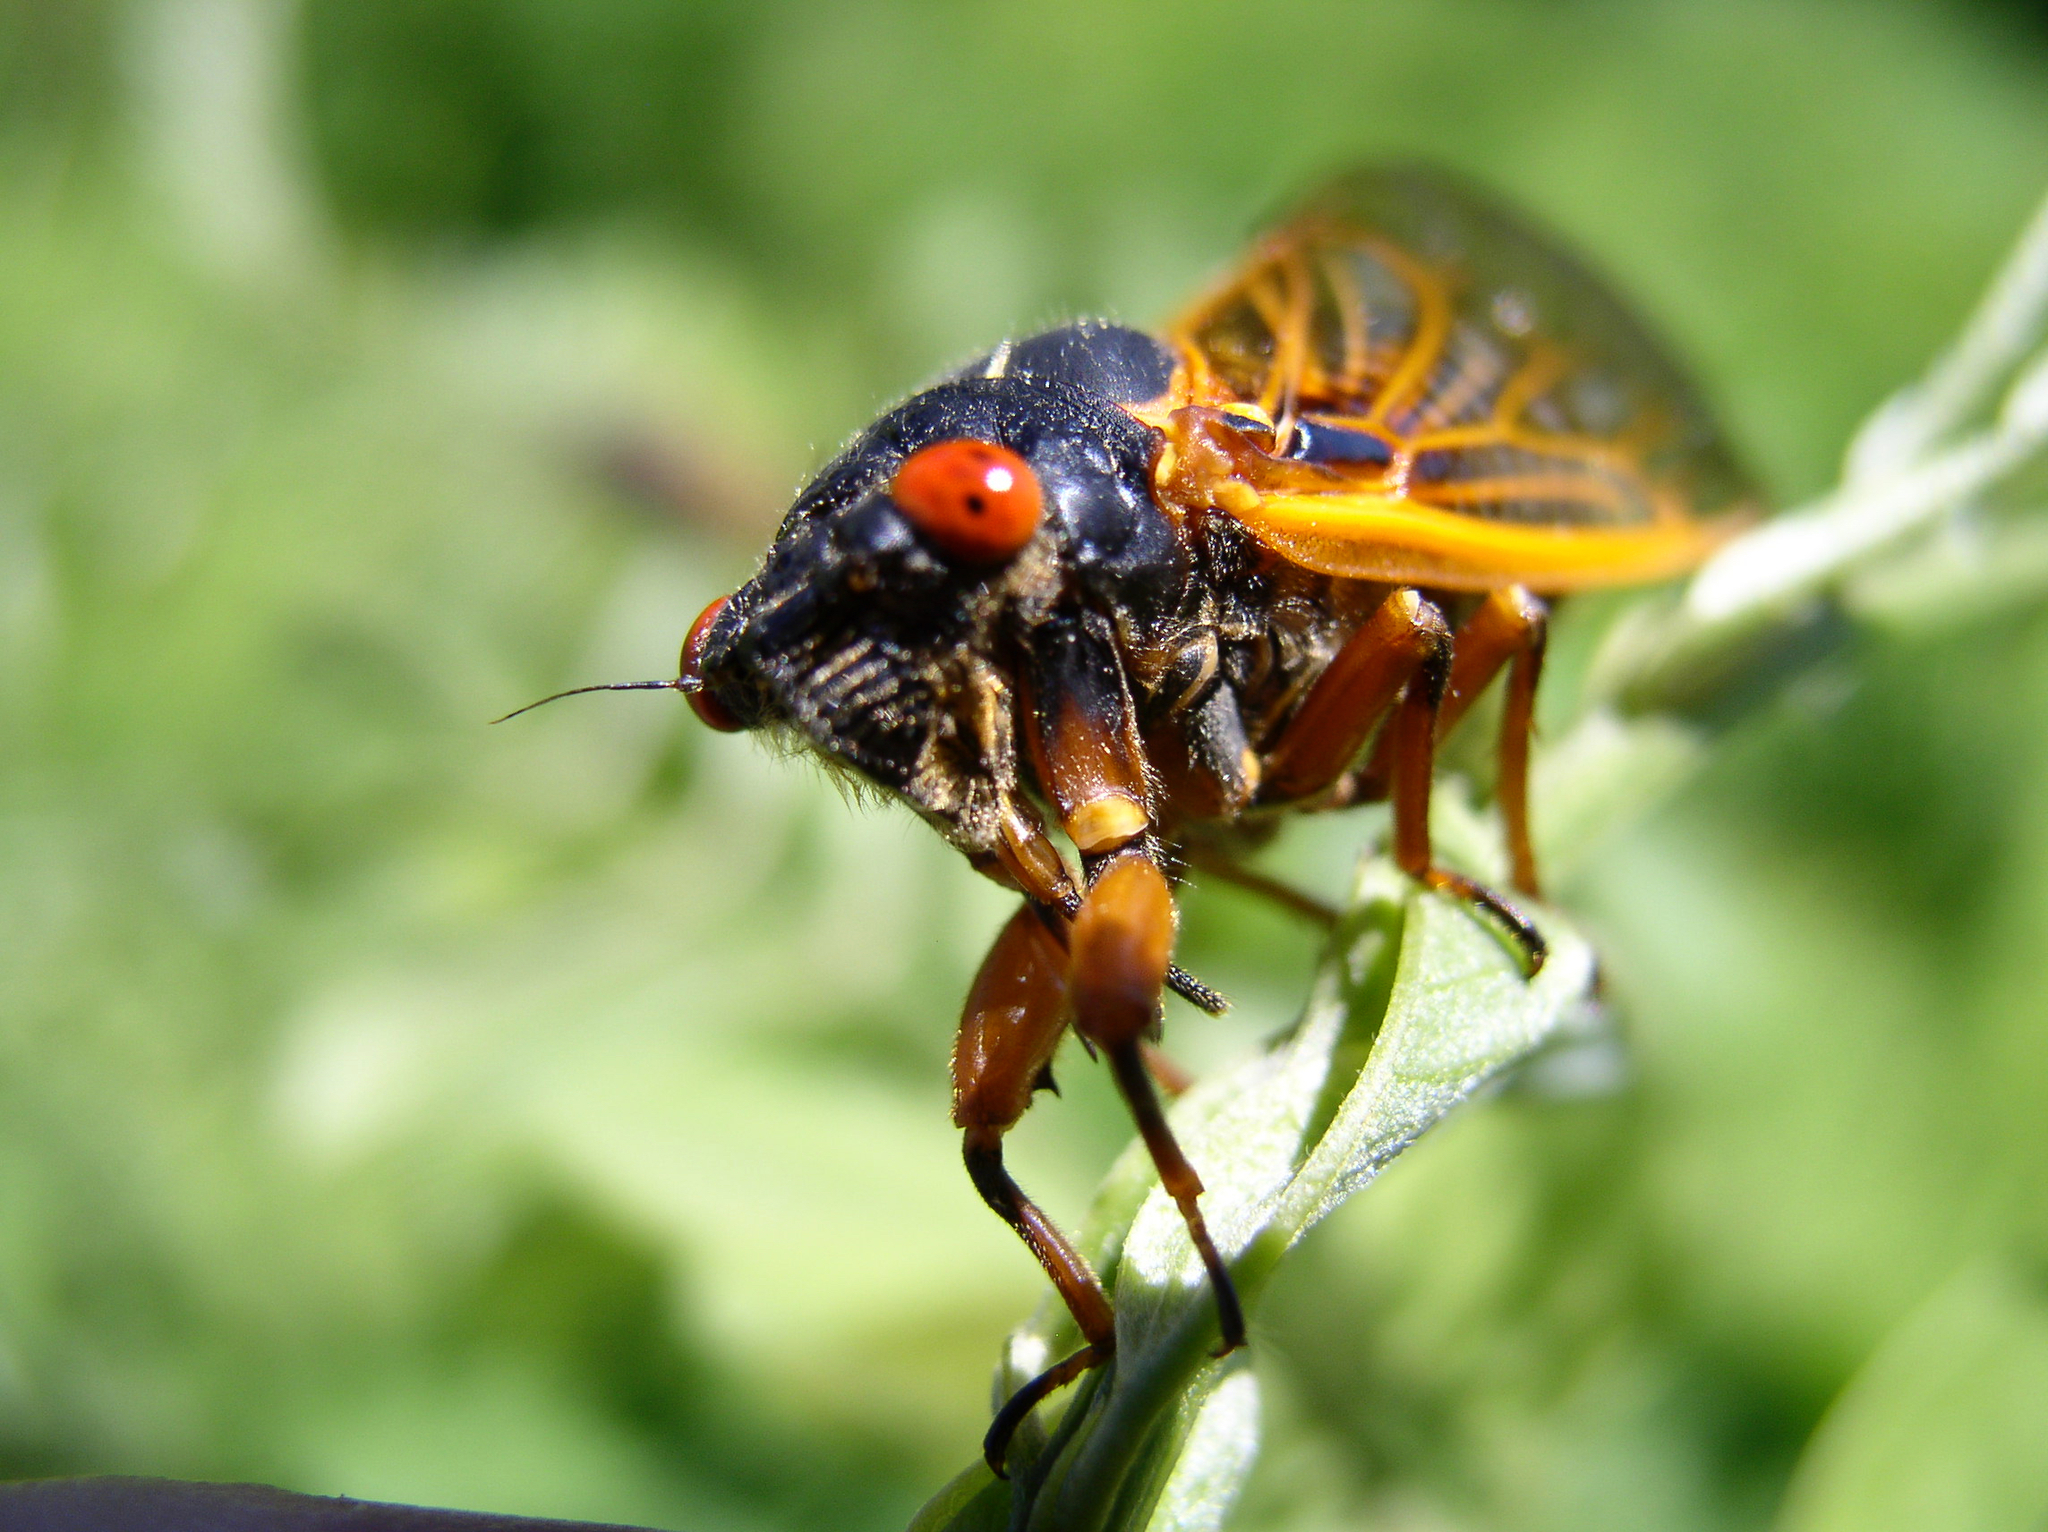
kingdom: Animalia
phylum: Arthropoda
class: Insecta
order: Hemiptera
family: Cicadidae
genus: Magicicada
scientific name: Magicicada
